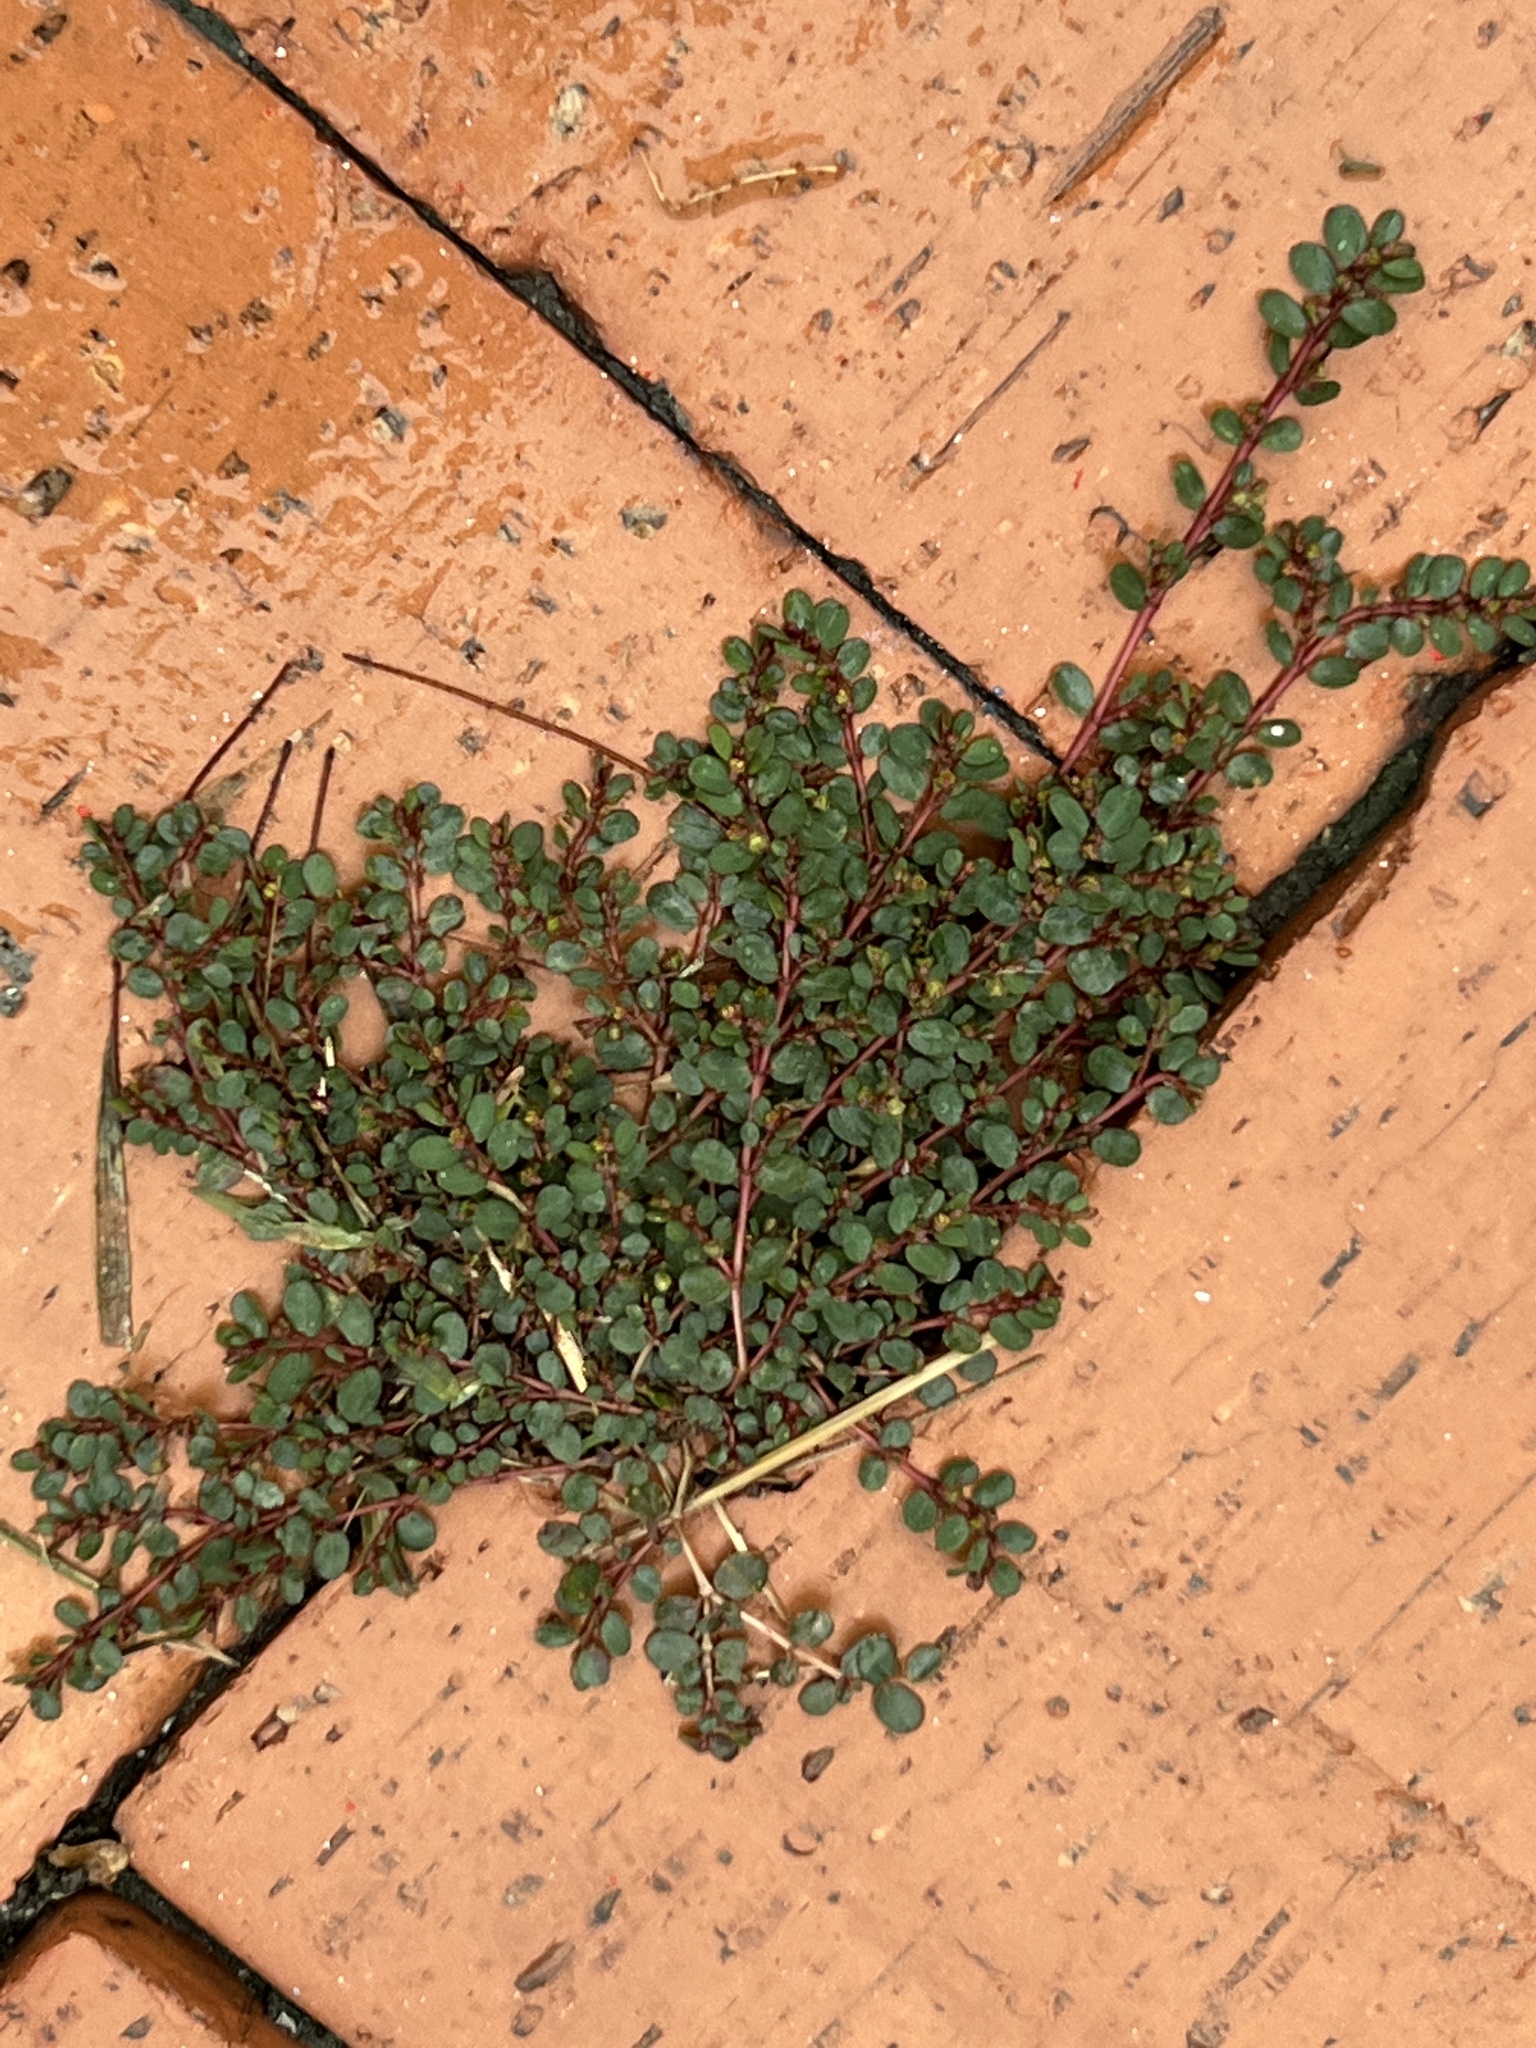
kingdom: Plantae
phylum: Tracheophyta
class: Magnoliopsida
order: Malpighiales
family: Euphorbiaceae
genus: Euphorbia
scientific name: Euphorbia prostrata
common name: Prostrate sandmat
